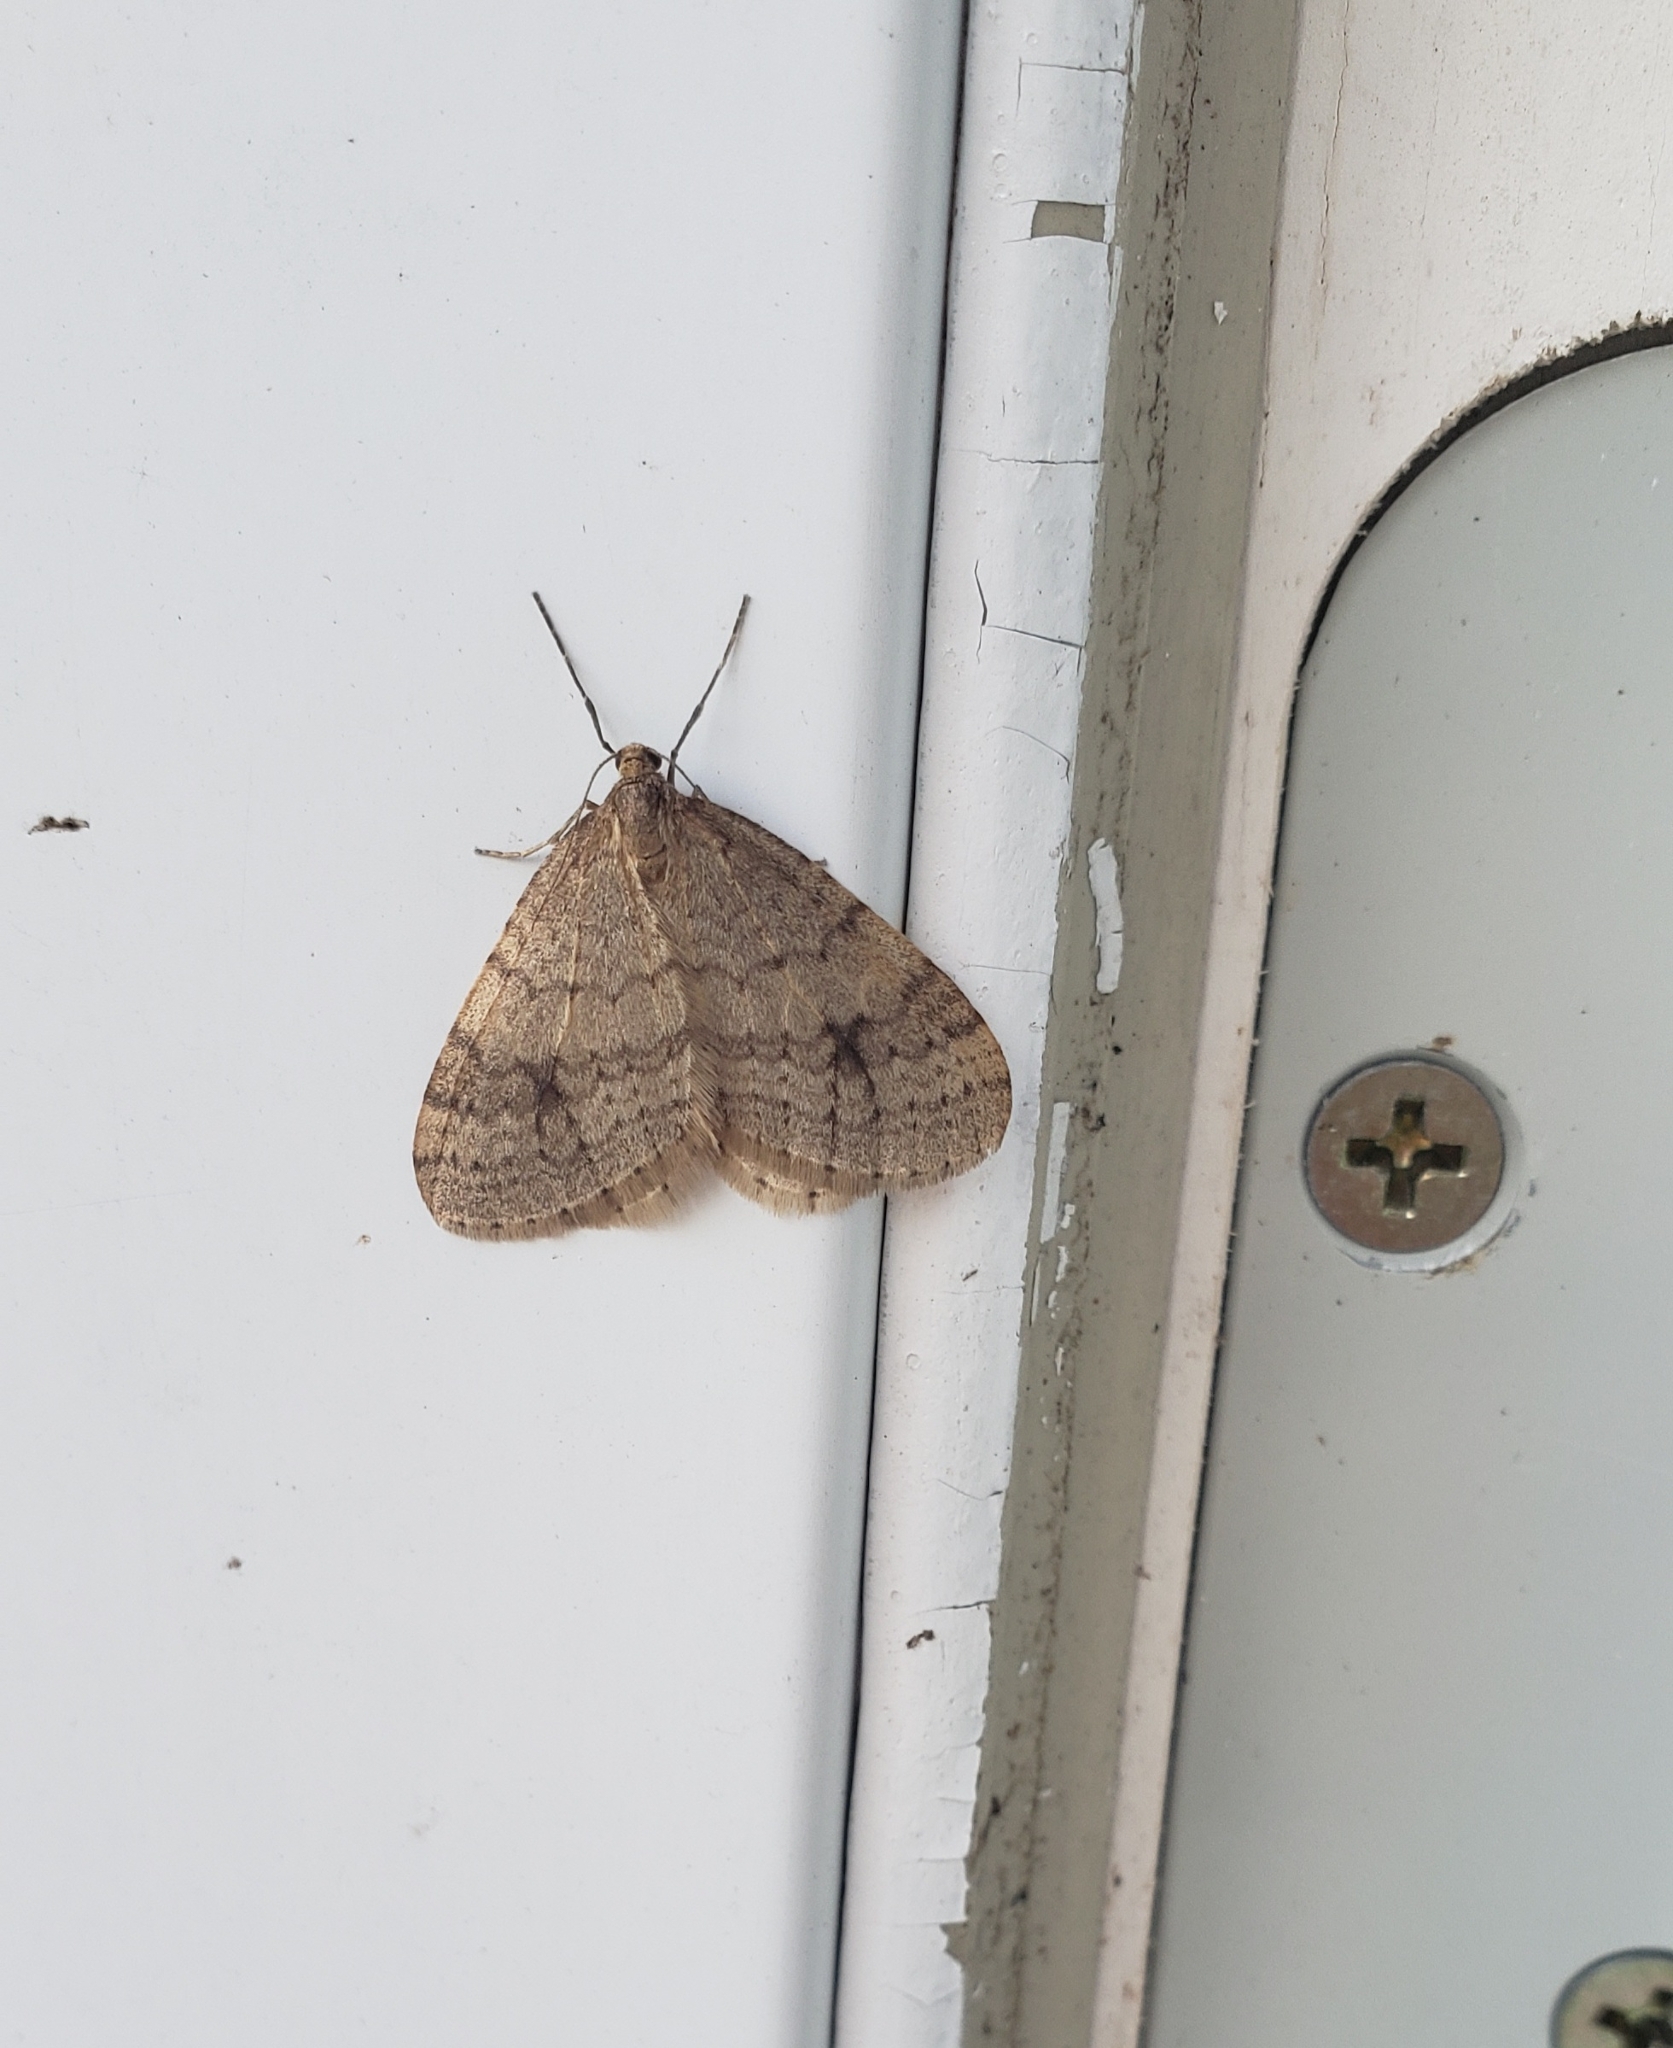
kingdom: Animalia
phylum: Arthropoda
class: Insecta
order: Lepidoptera
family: Geometridae
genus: Operophtera
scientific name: Operophtera bruceata
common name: Bruce spanworm
